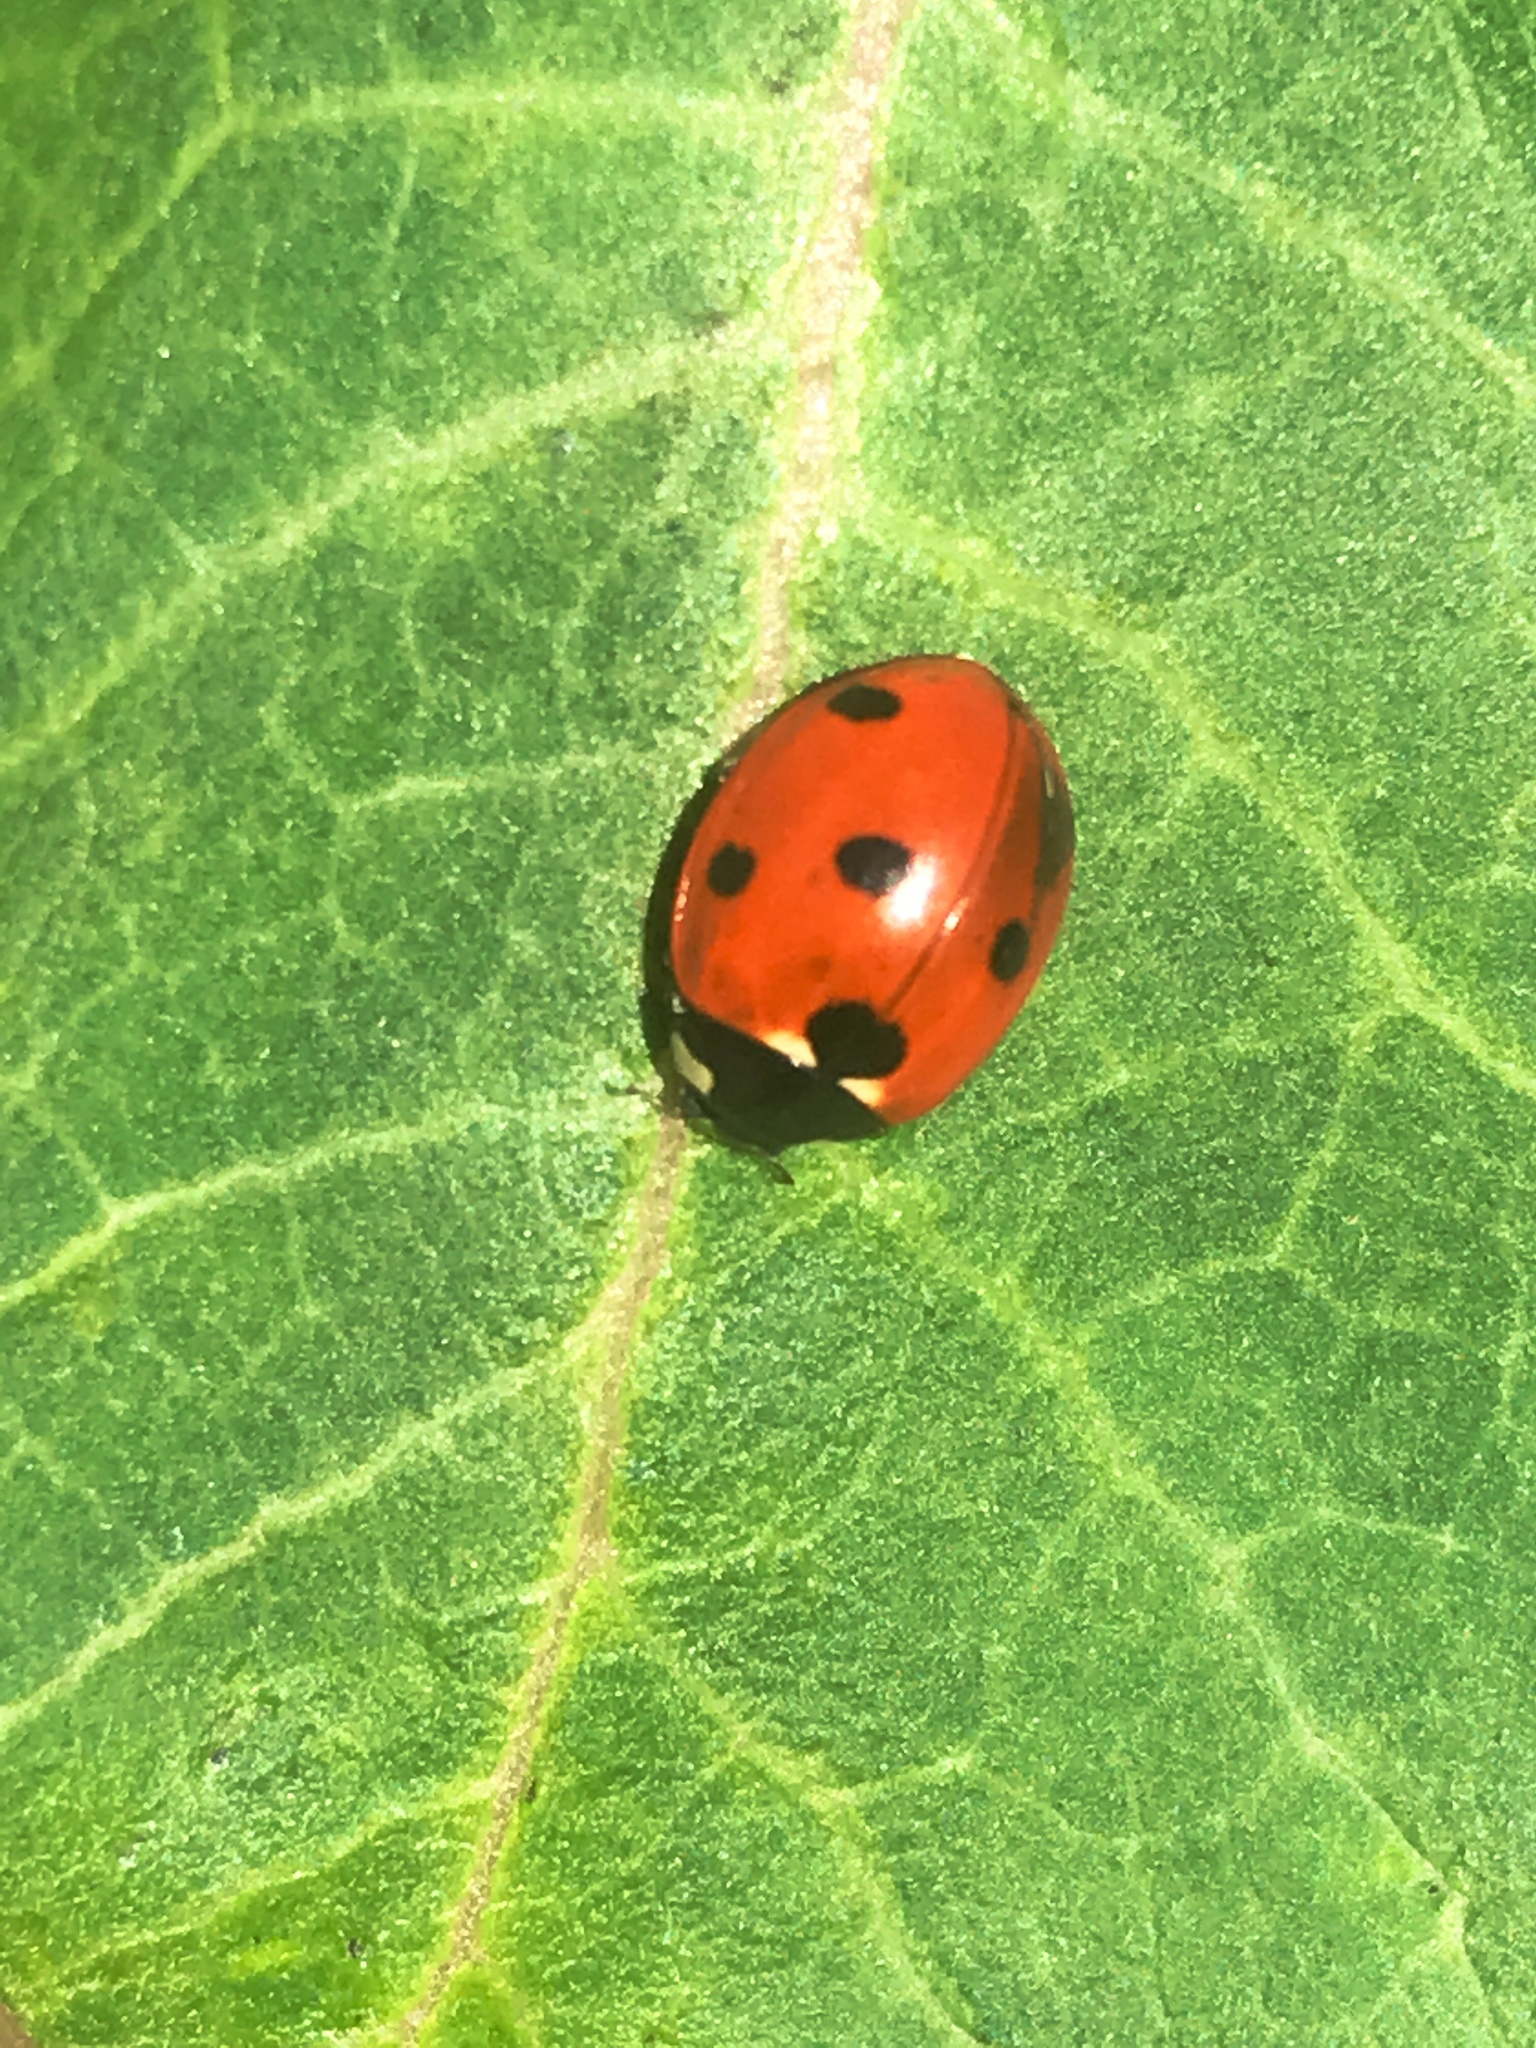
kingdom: Animalia
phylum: Arthropoda
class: Insecta
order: Coleoptera
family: Coccinellidae
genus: Coccinella
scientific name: Coccinella septempunctata
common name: Sevenspotted lady beetle
